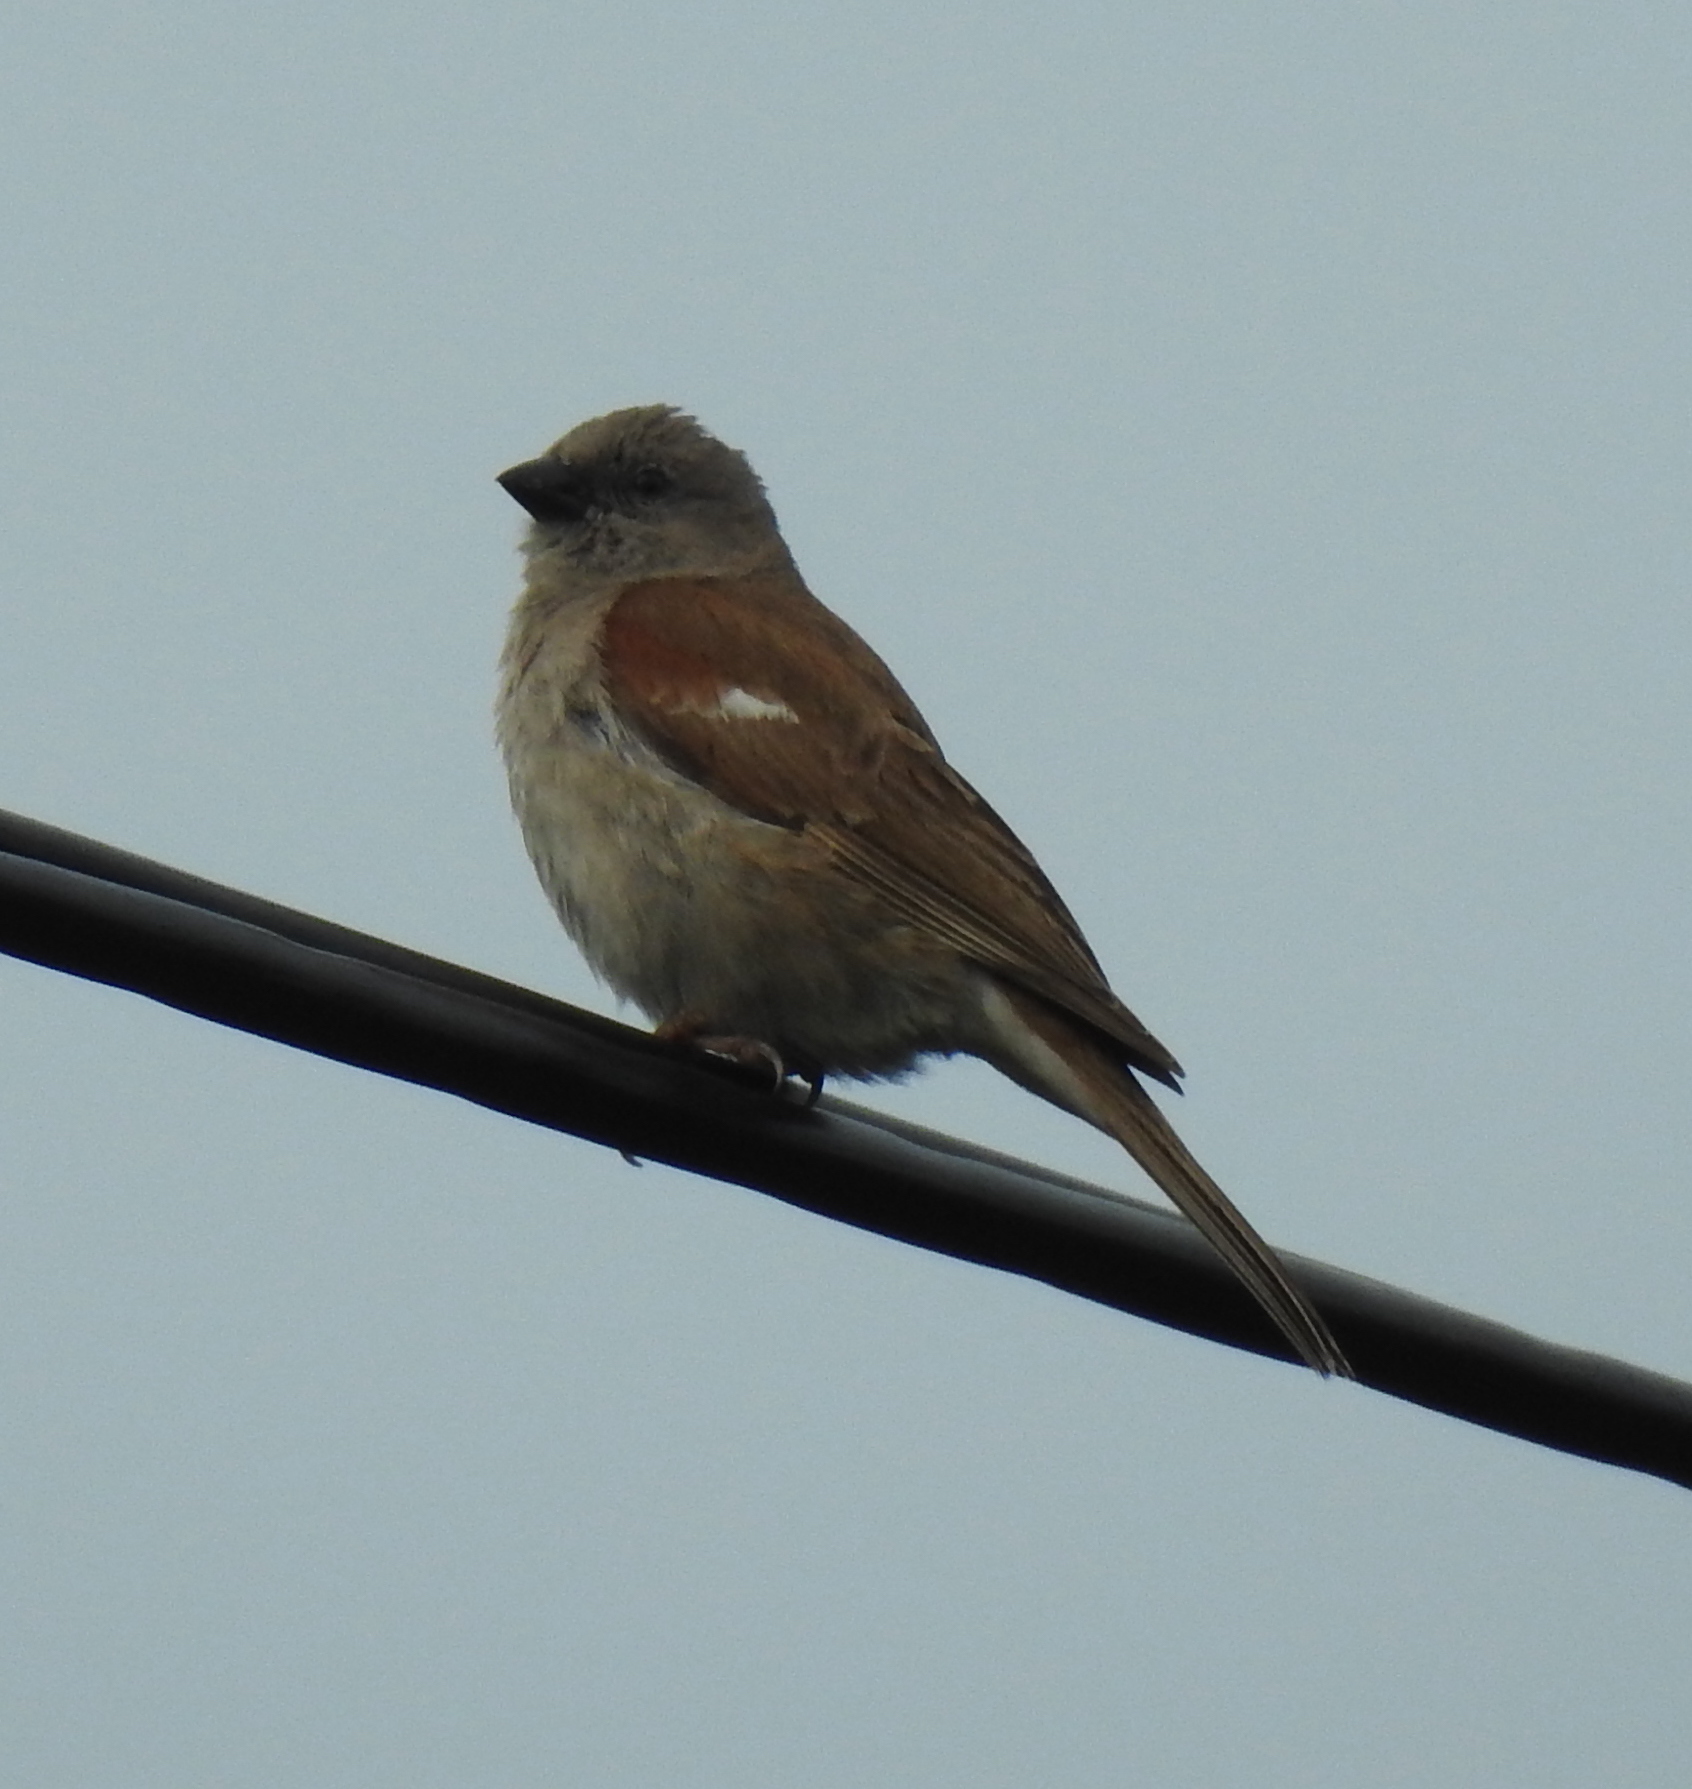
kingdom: Animalia
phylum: Chordata
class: Aves
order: Passeriformes
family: Passeridae
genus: Passer
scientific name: Passer diffusus
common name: Southern grey-headed sparrow
